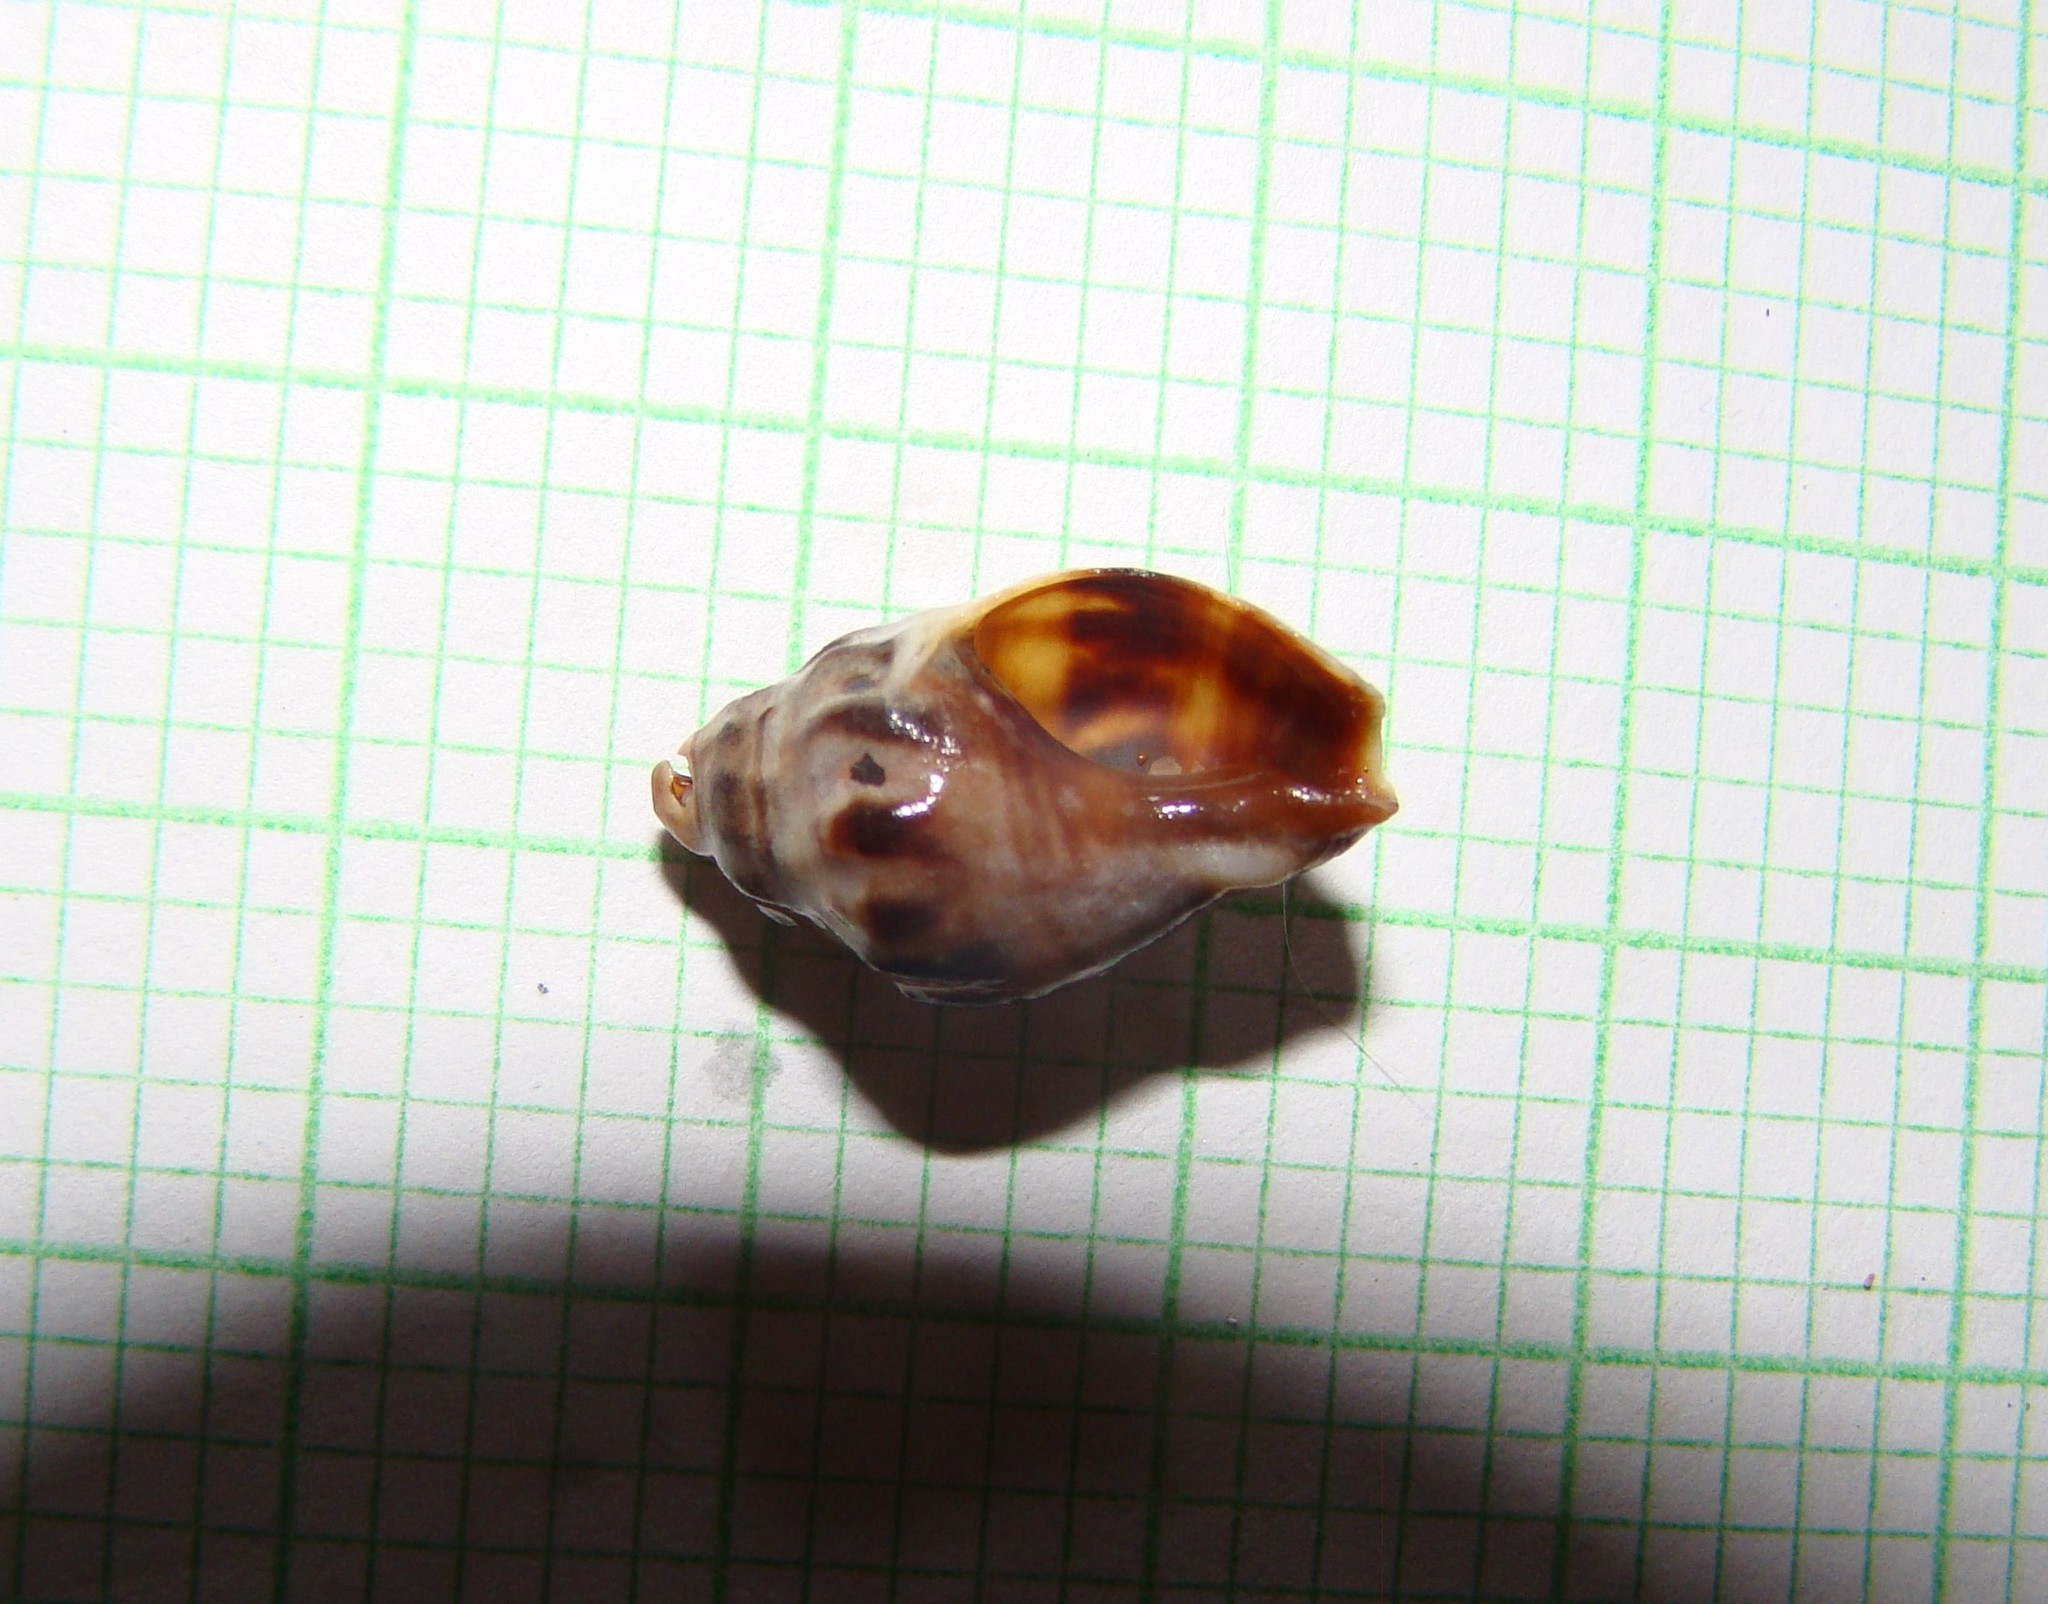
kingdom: Animalia
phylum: Mollusca
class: Gastropoda
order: Neogastropoda
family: Cominellidae
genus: Cominella
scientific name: Cominella glandiformis
